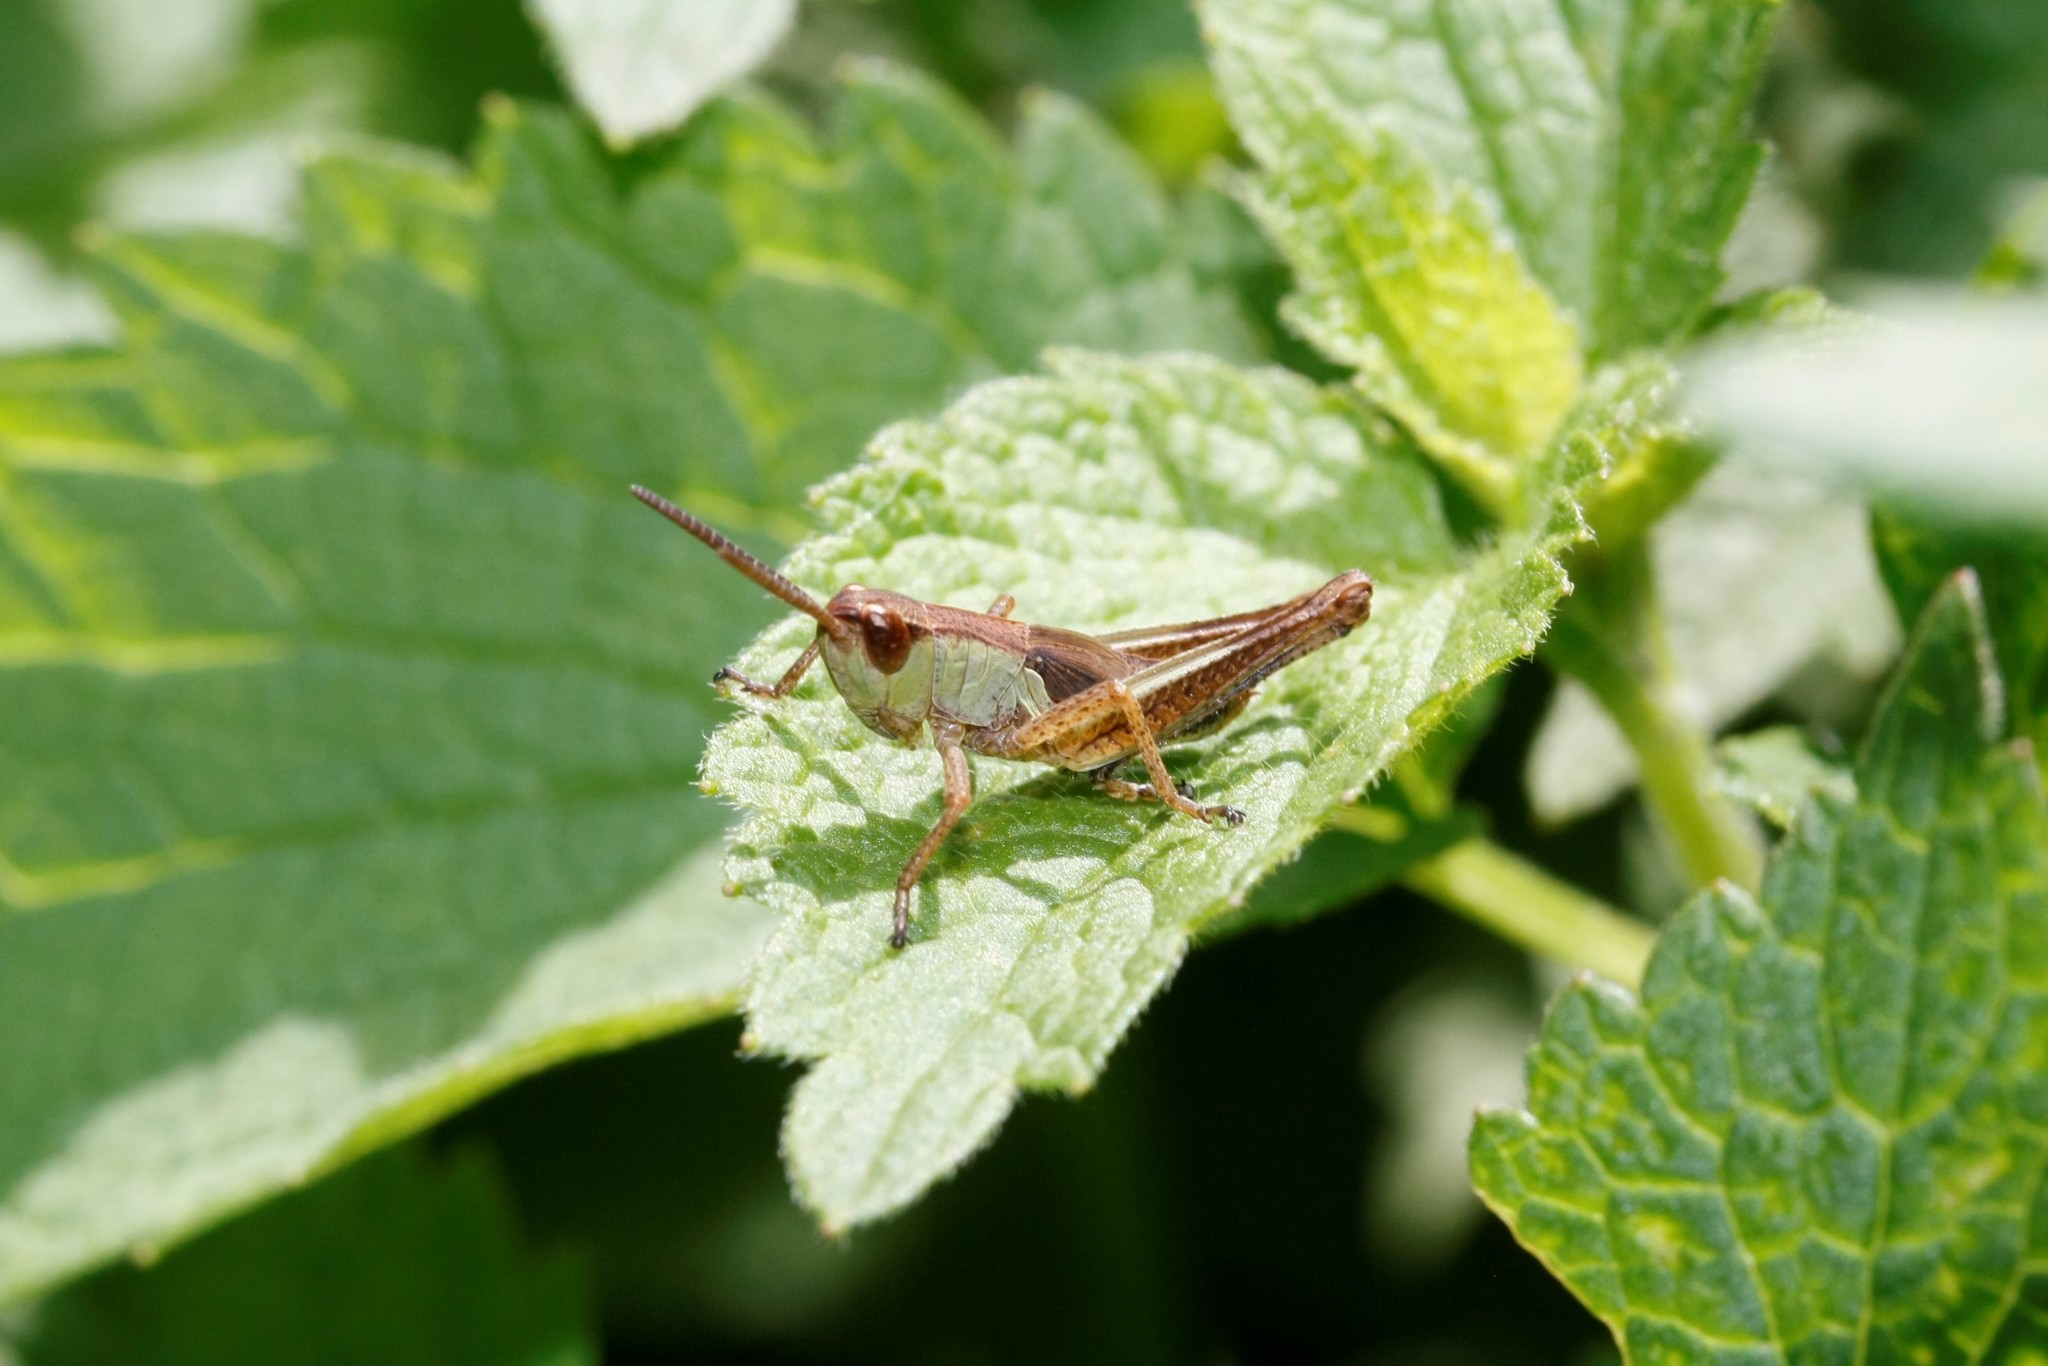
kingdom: Animalia
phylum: Arthropoda
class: Insecta
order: Orthoptera
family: Acrididae
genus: Pseudochorthippus
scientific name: Pseudochorthippus parallelus
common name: Meadow grasshopper
